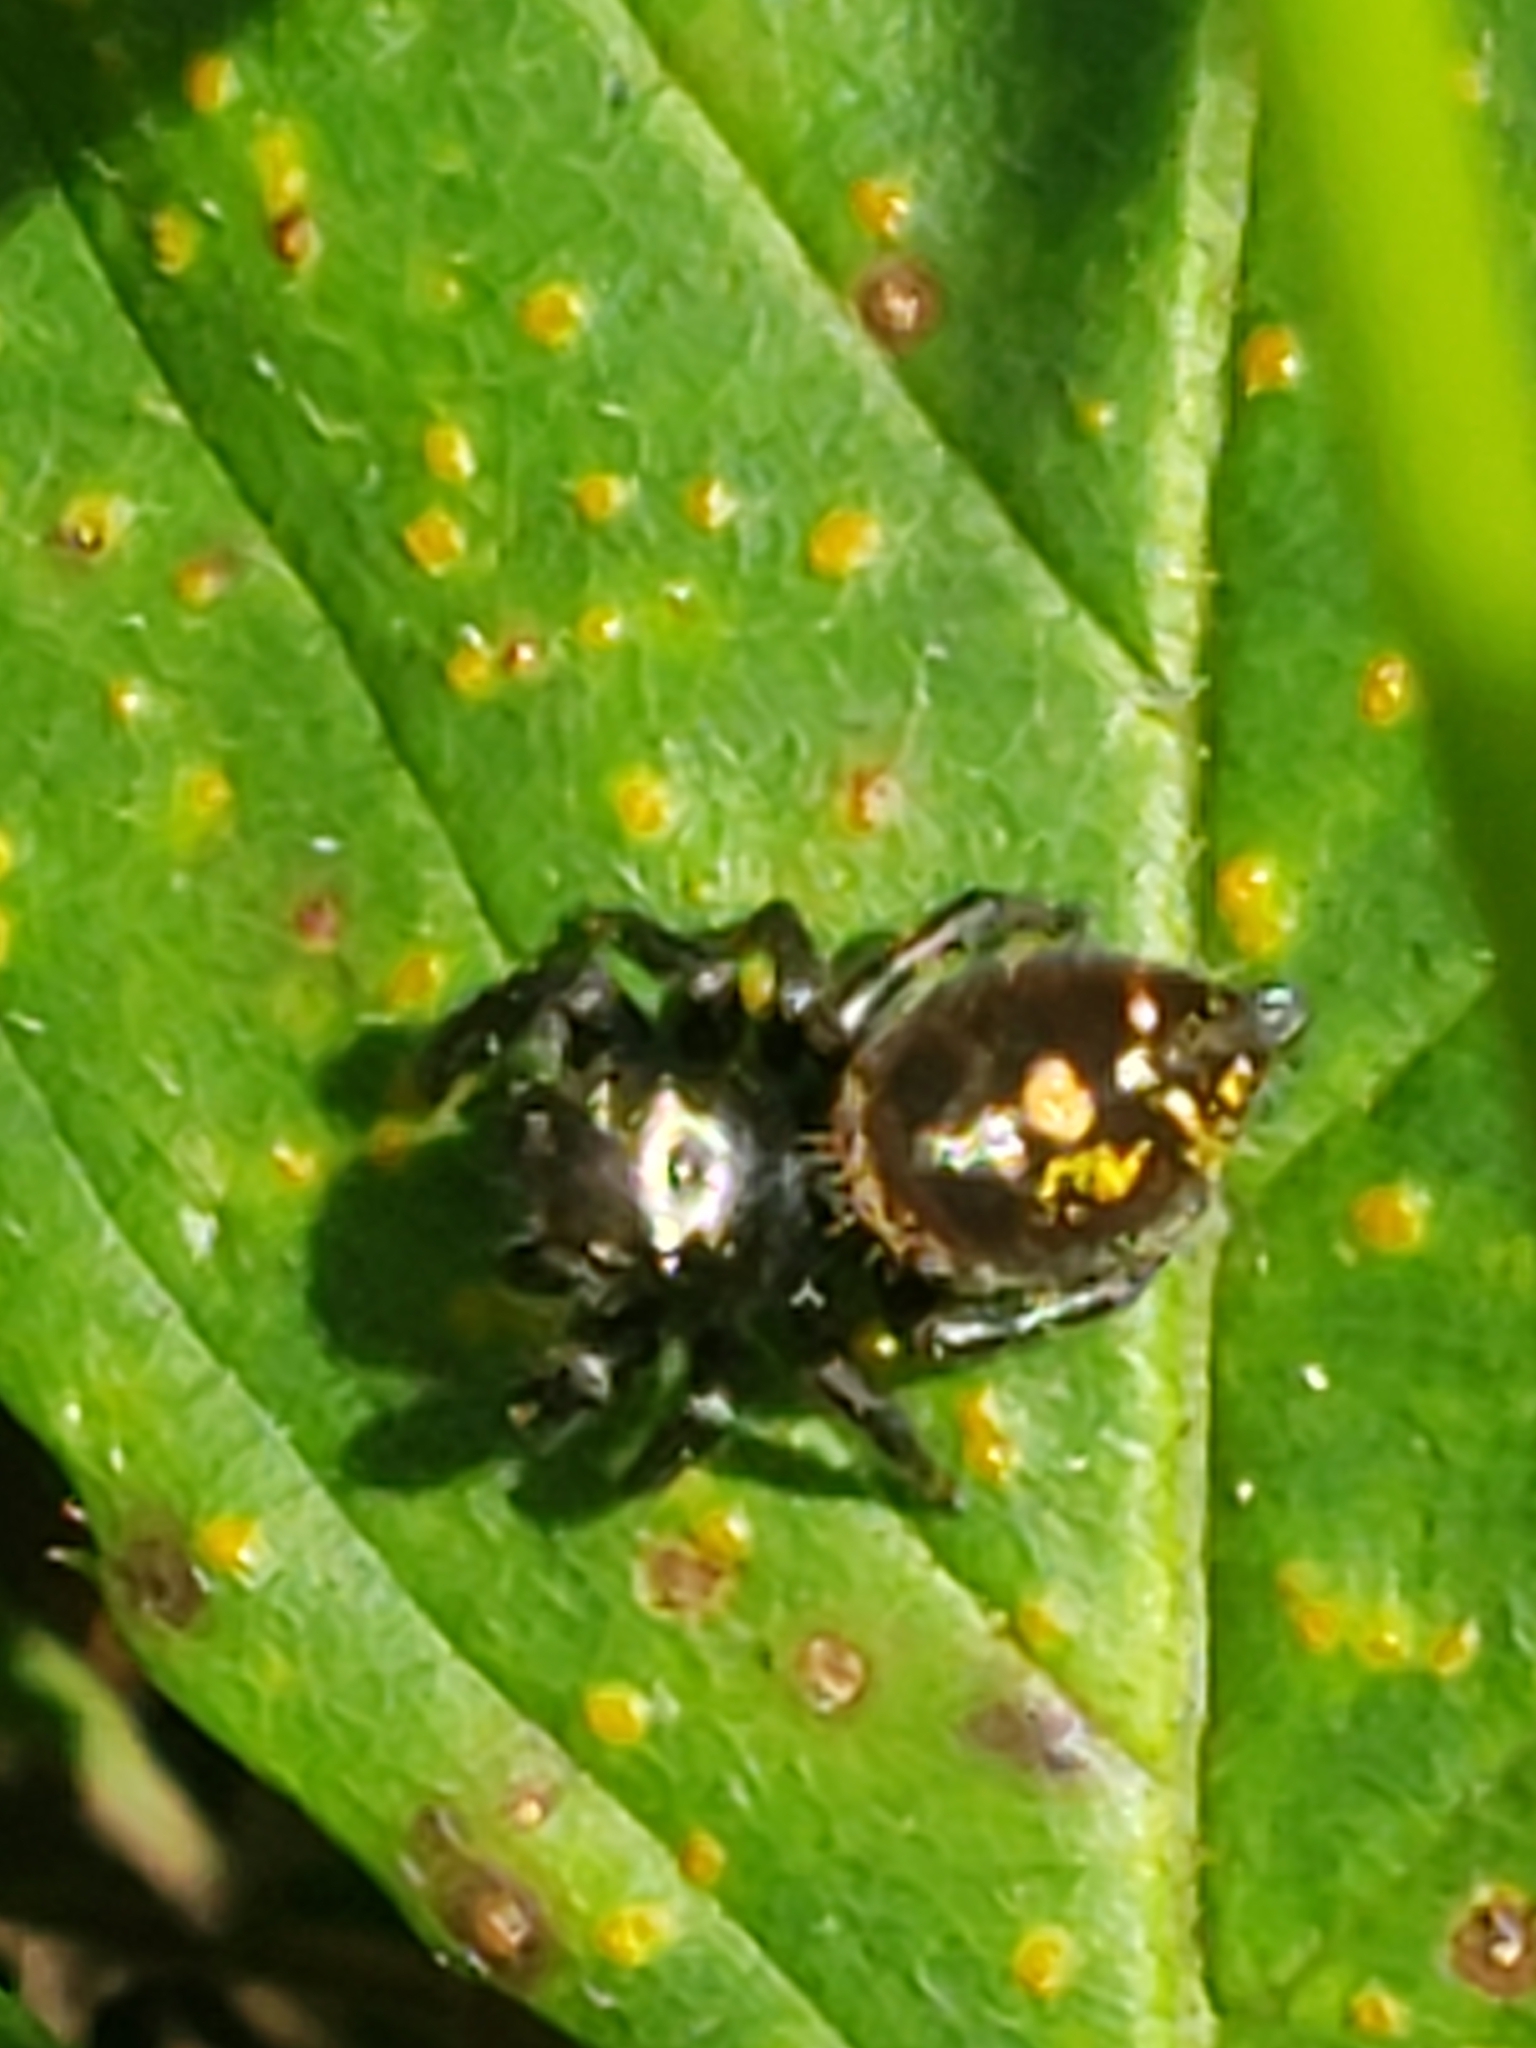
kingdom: Animalia
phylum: Arthropoda
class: Arachnida
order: Araneae
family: Salticidae
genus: Phidippus
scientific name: Phidippus audax
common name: Bold jumper
